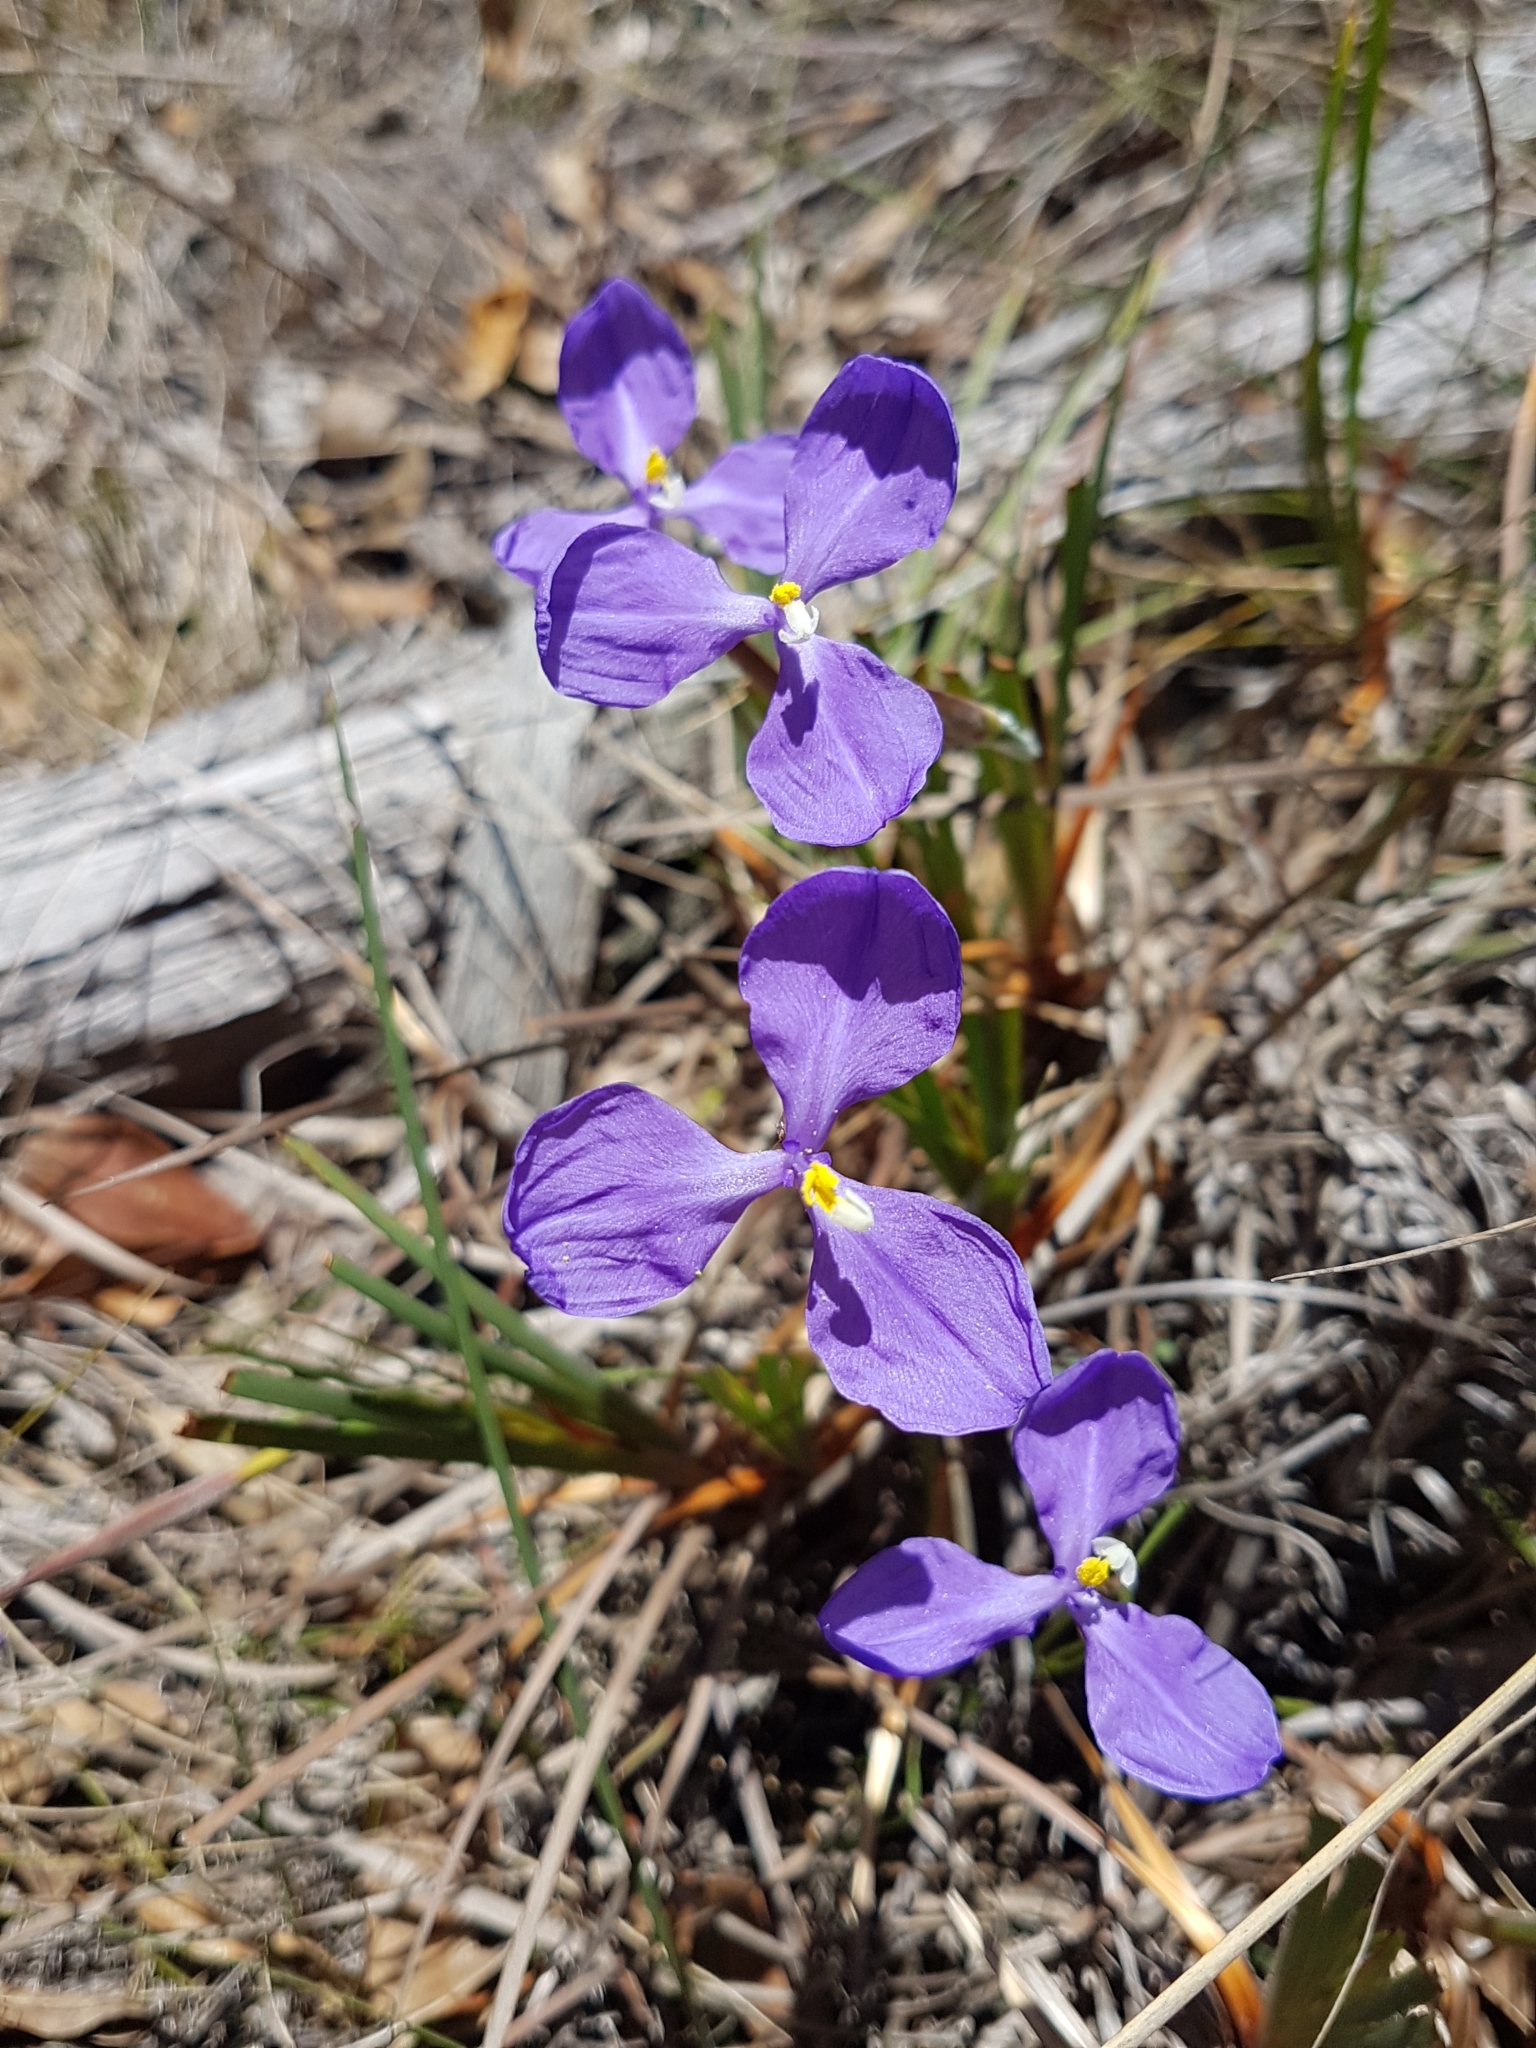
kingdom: Plantae
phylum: Tracheophyta
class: Liliopsida
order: Asparagales
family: Iridaceae
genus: Patersonia
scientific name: Patersonia glabrata
